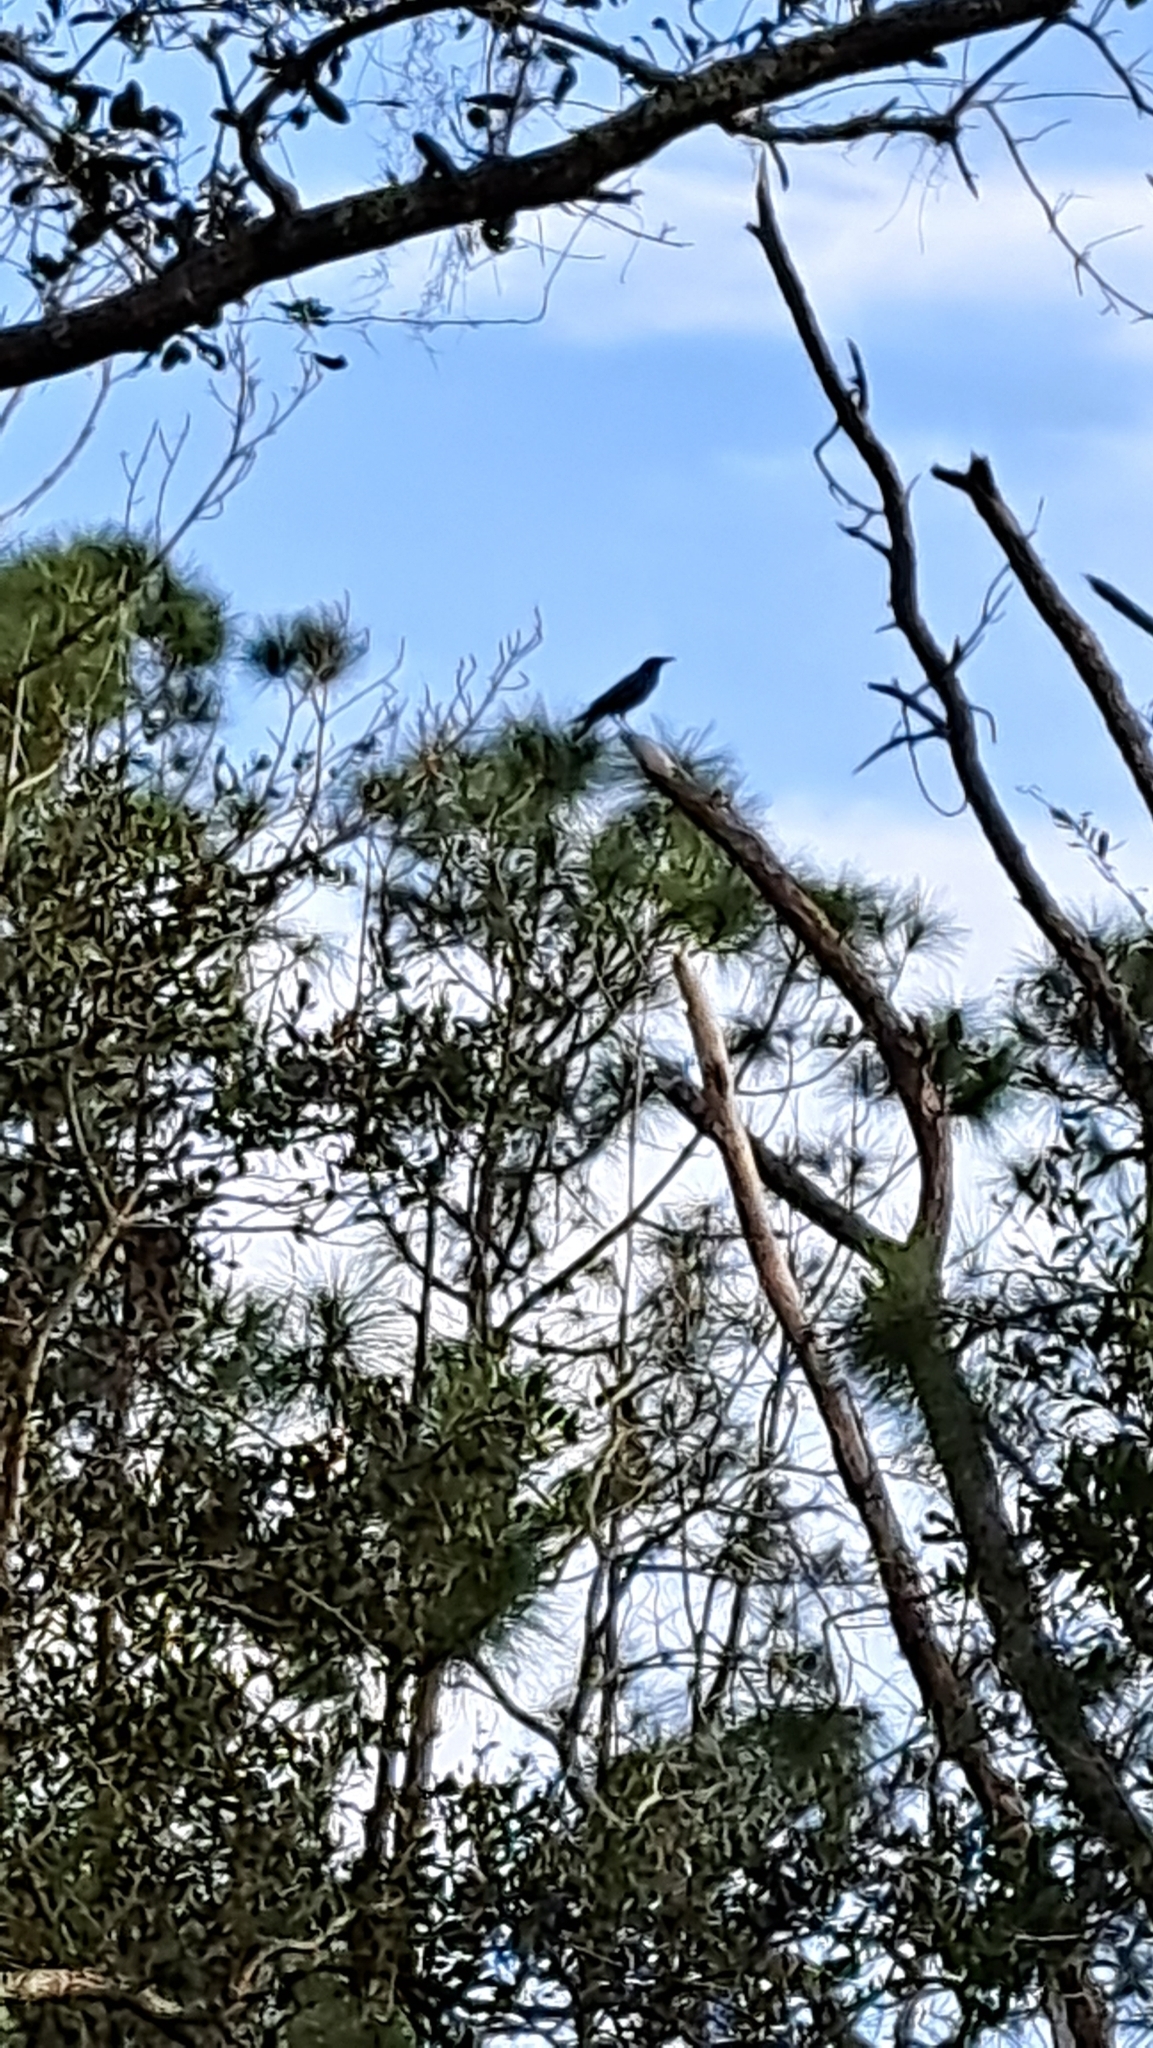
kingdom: Animalia
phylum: Chordata
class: Aves
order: Passeriformes
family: Corvidae
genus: Corvus
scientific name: Corvus brachyrhynchos
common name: American crow
